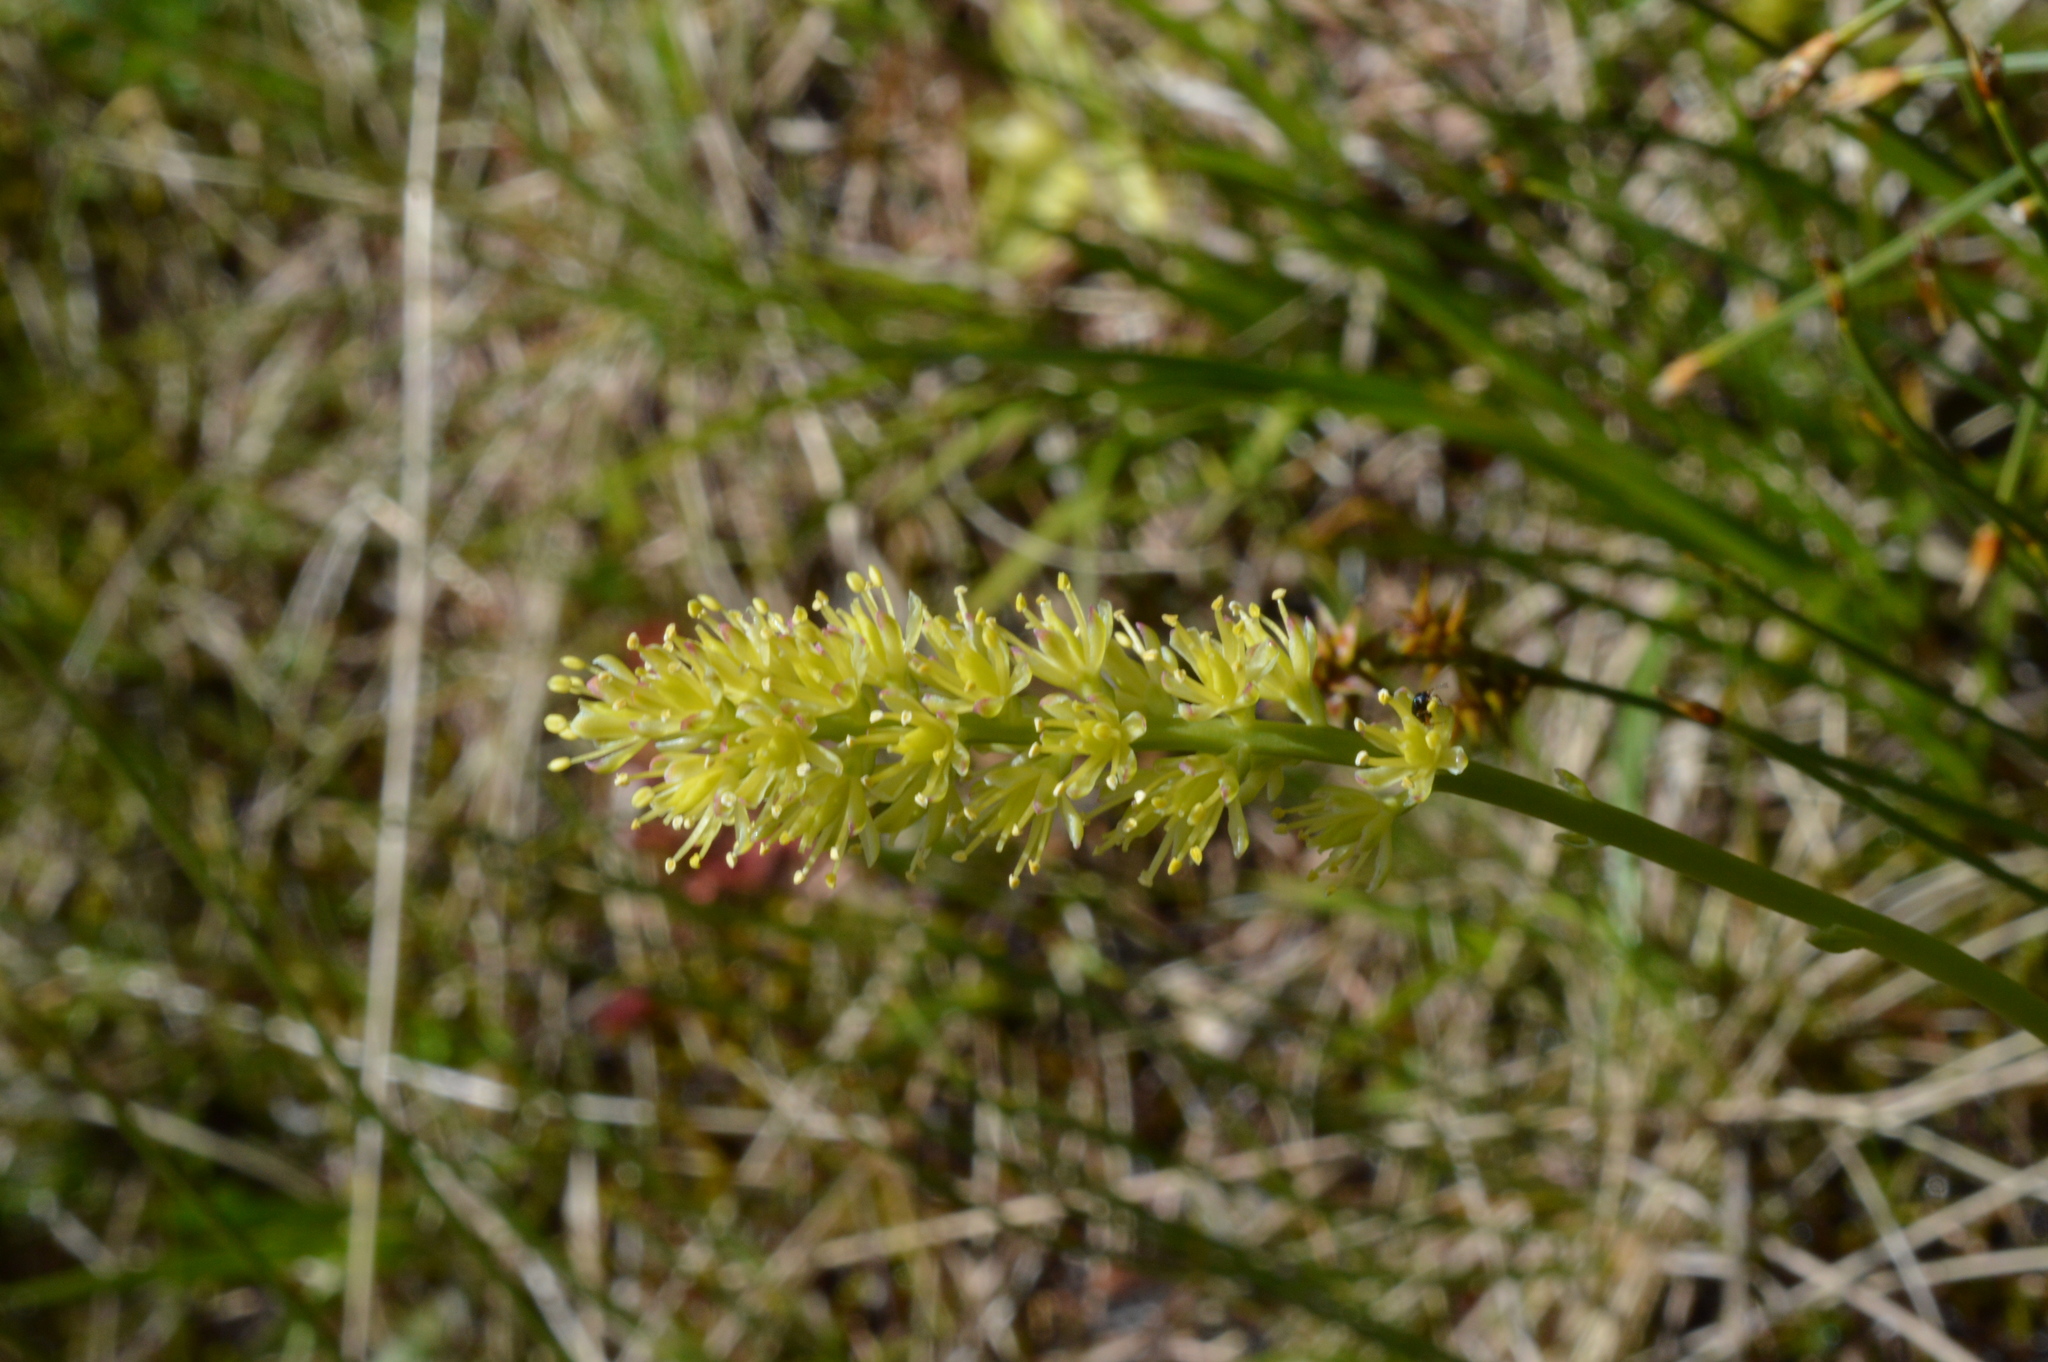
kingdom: Plantae
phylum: Tracheophyta
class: Liliopsida
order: Alismatales
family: Tofieldiaceae
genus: Tofieldia
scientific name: Tofieldia calyculata
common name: German-asphodel
